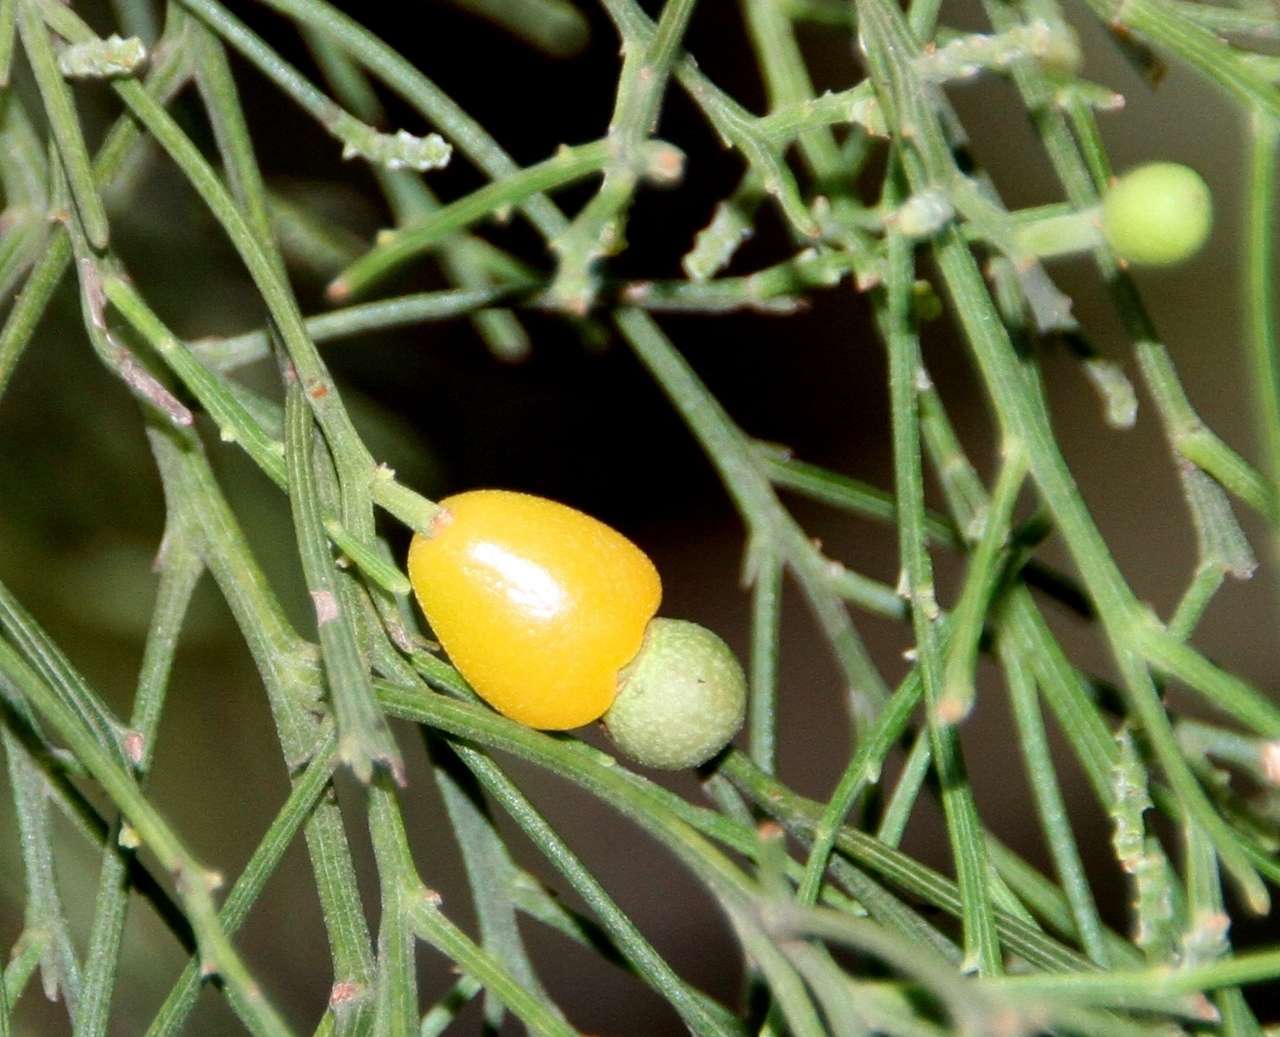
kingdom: Plantae
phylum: Tracheophyta
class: Magnoliopsida
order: Santalales
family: Santalaceae
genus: Exocarpos
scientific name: Exocarpos cupressiformis
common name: Cherry ballart
